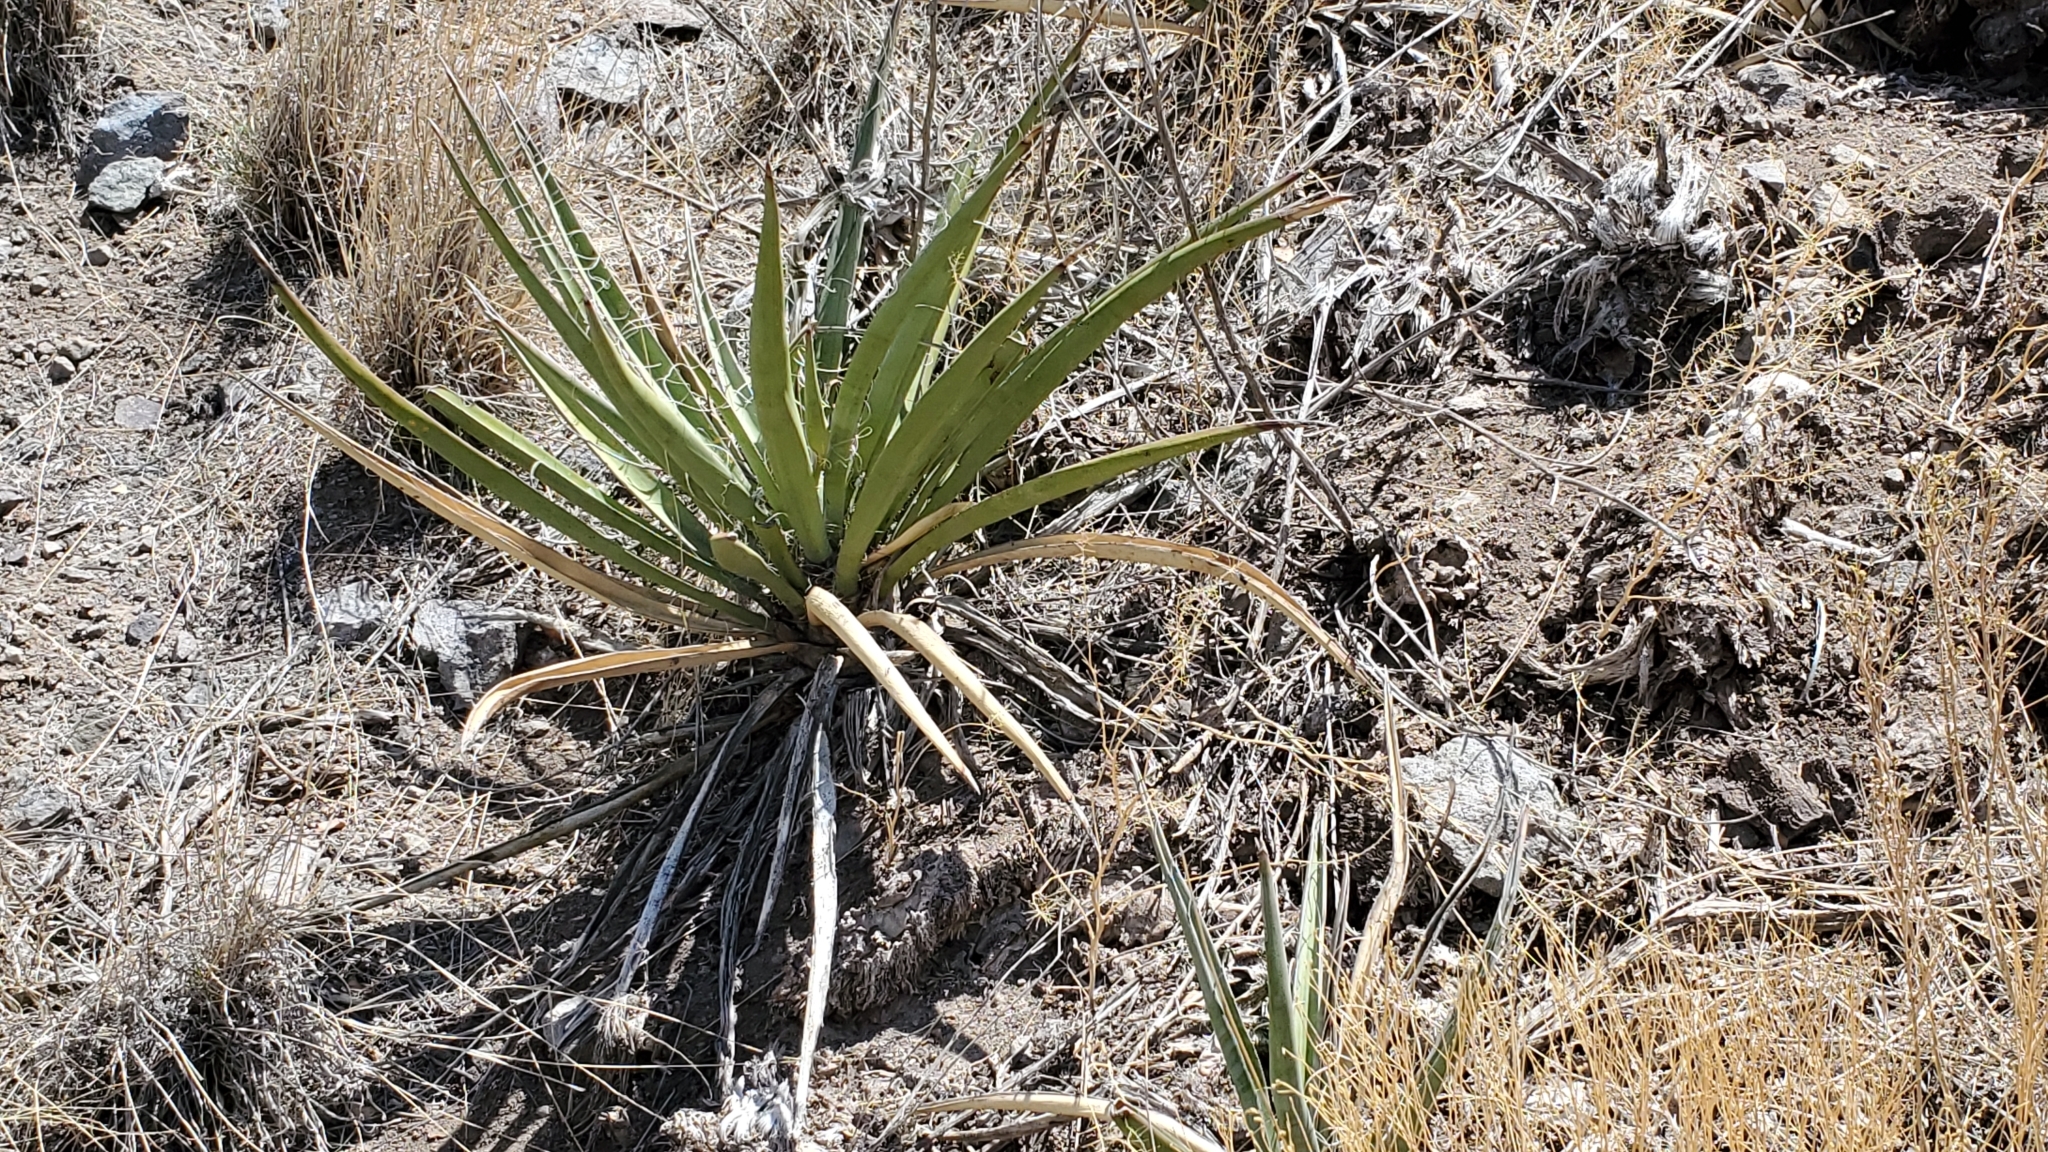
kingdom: Plantae
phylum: Tracheophyta
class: Liliopsida
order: Asparagales
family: Asparagaceae
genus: Yucca
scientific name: Yucca baccata
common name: Banana yucca
